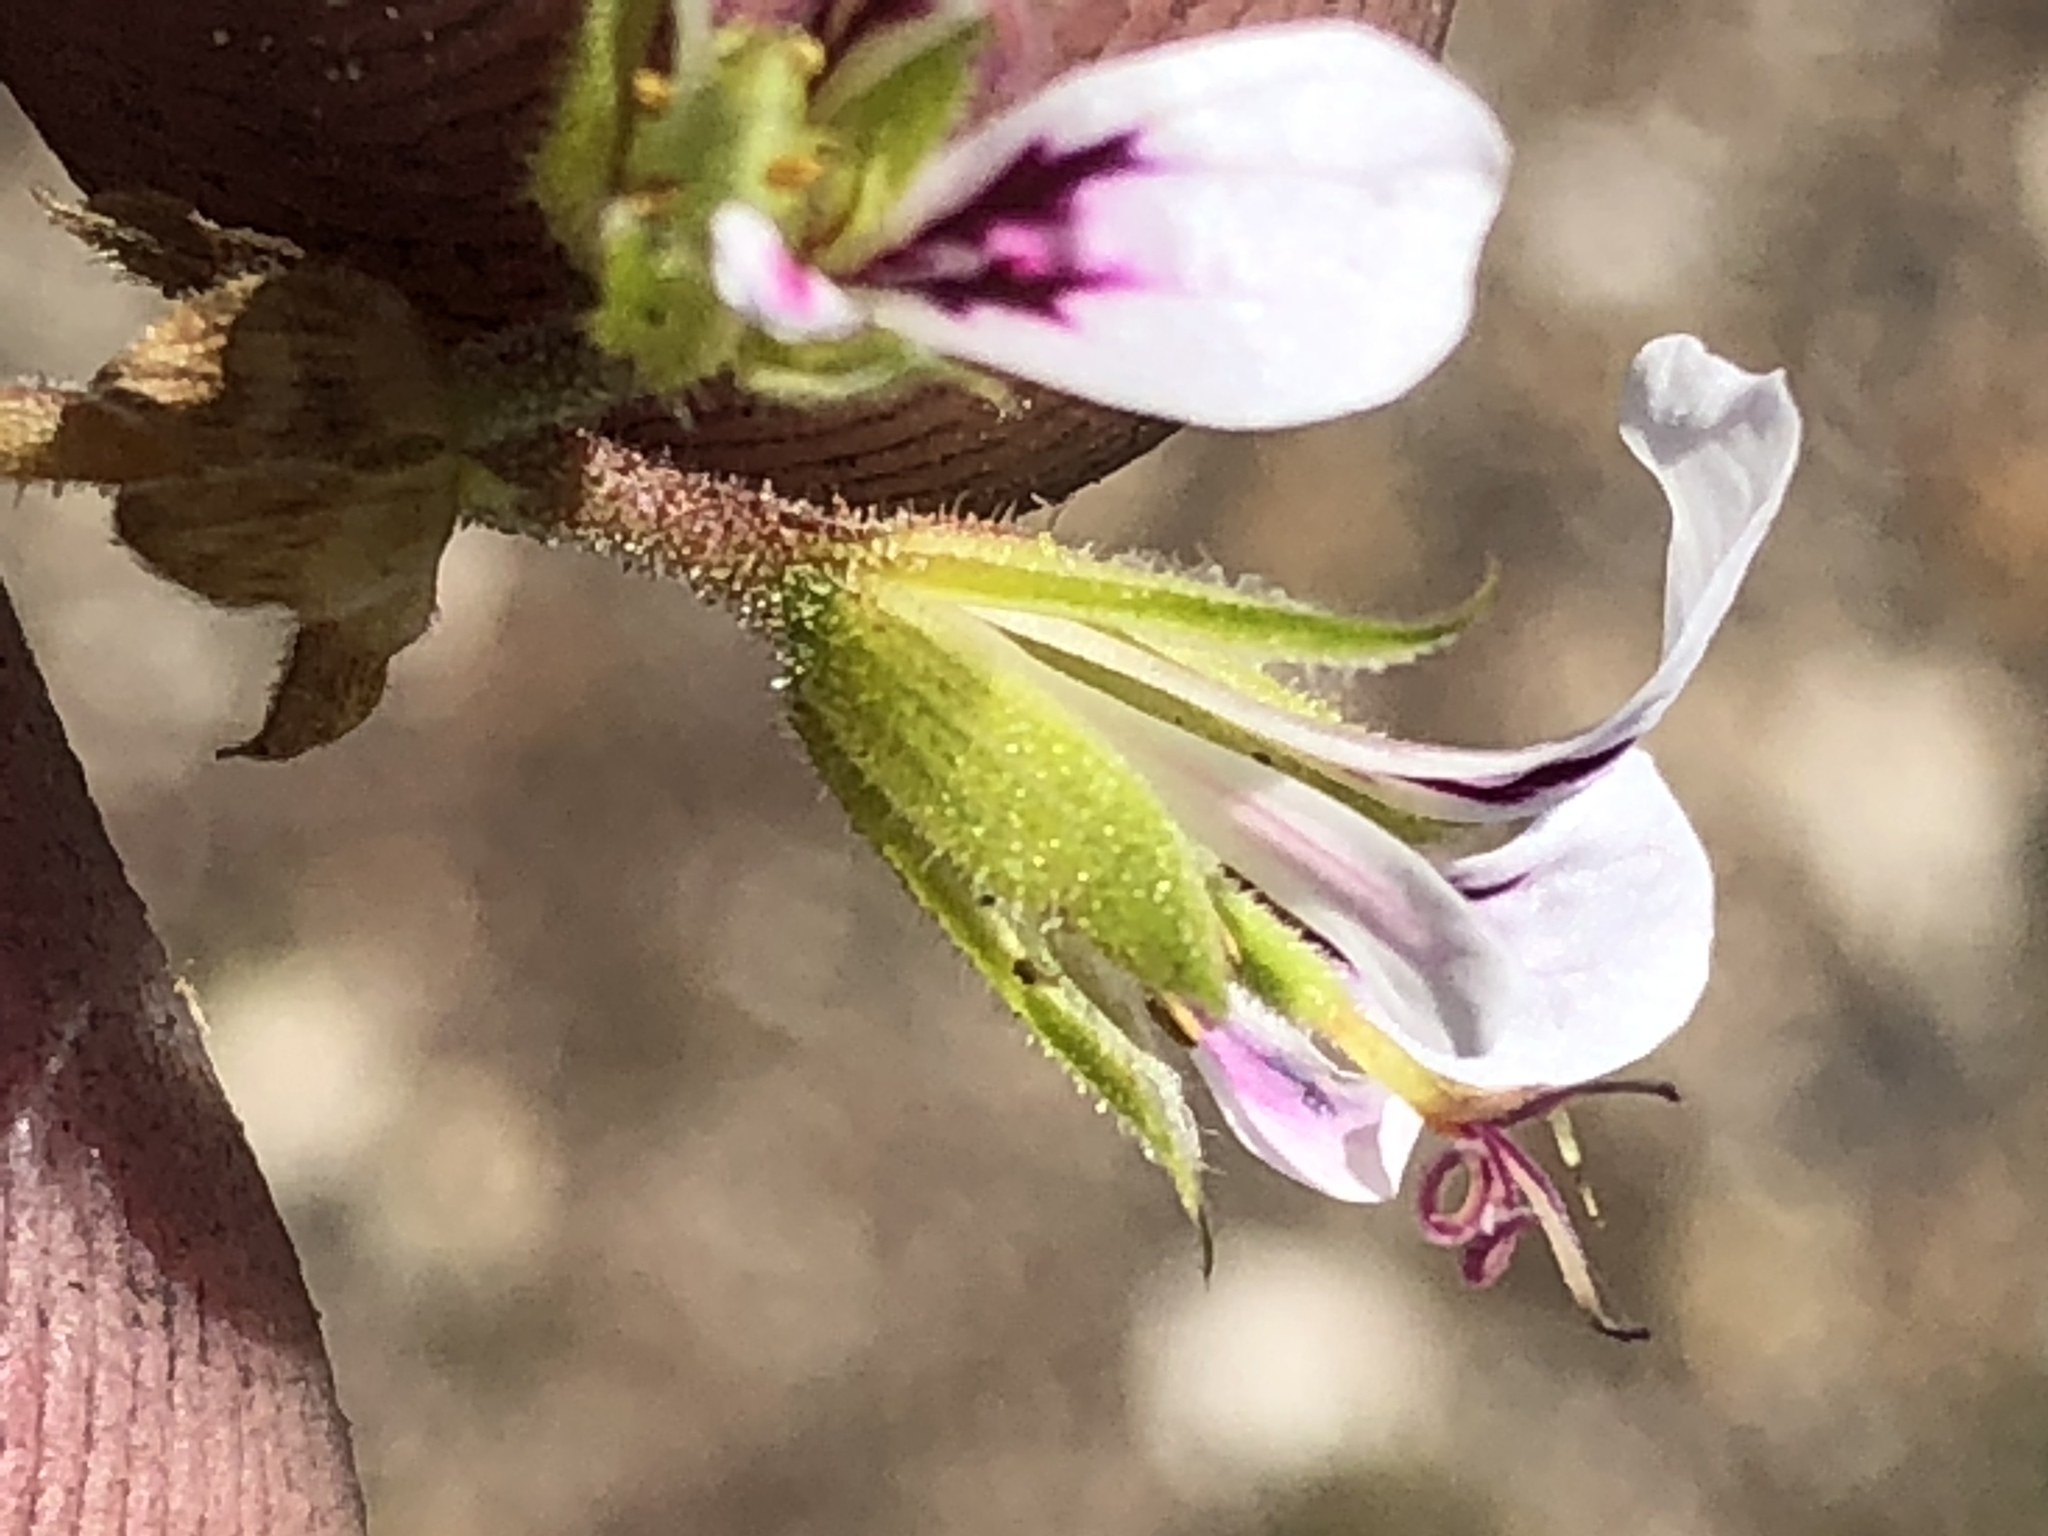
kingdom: Plantae
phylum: Tracheophyta
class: Magnoliopsida
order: Geraniales
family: Geraniaceae
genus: Pelargonium
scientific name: Pelargonium candicans
